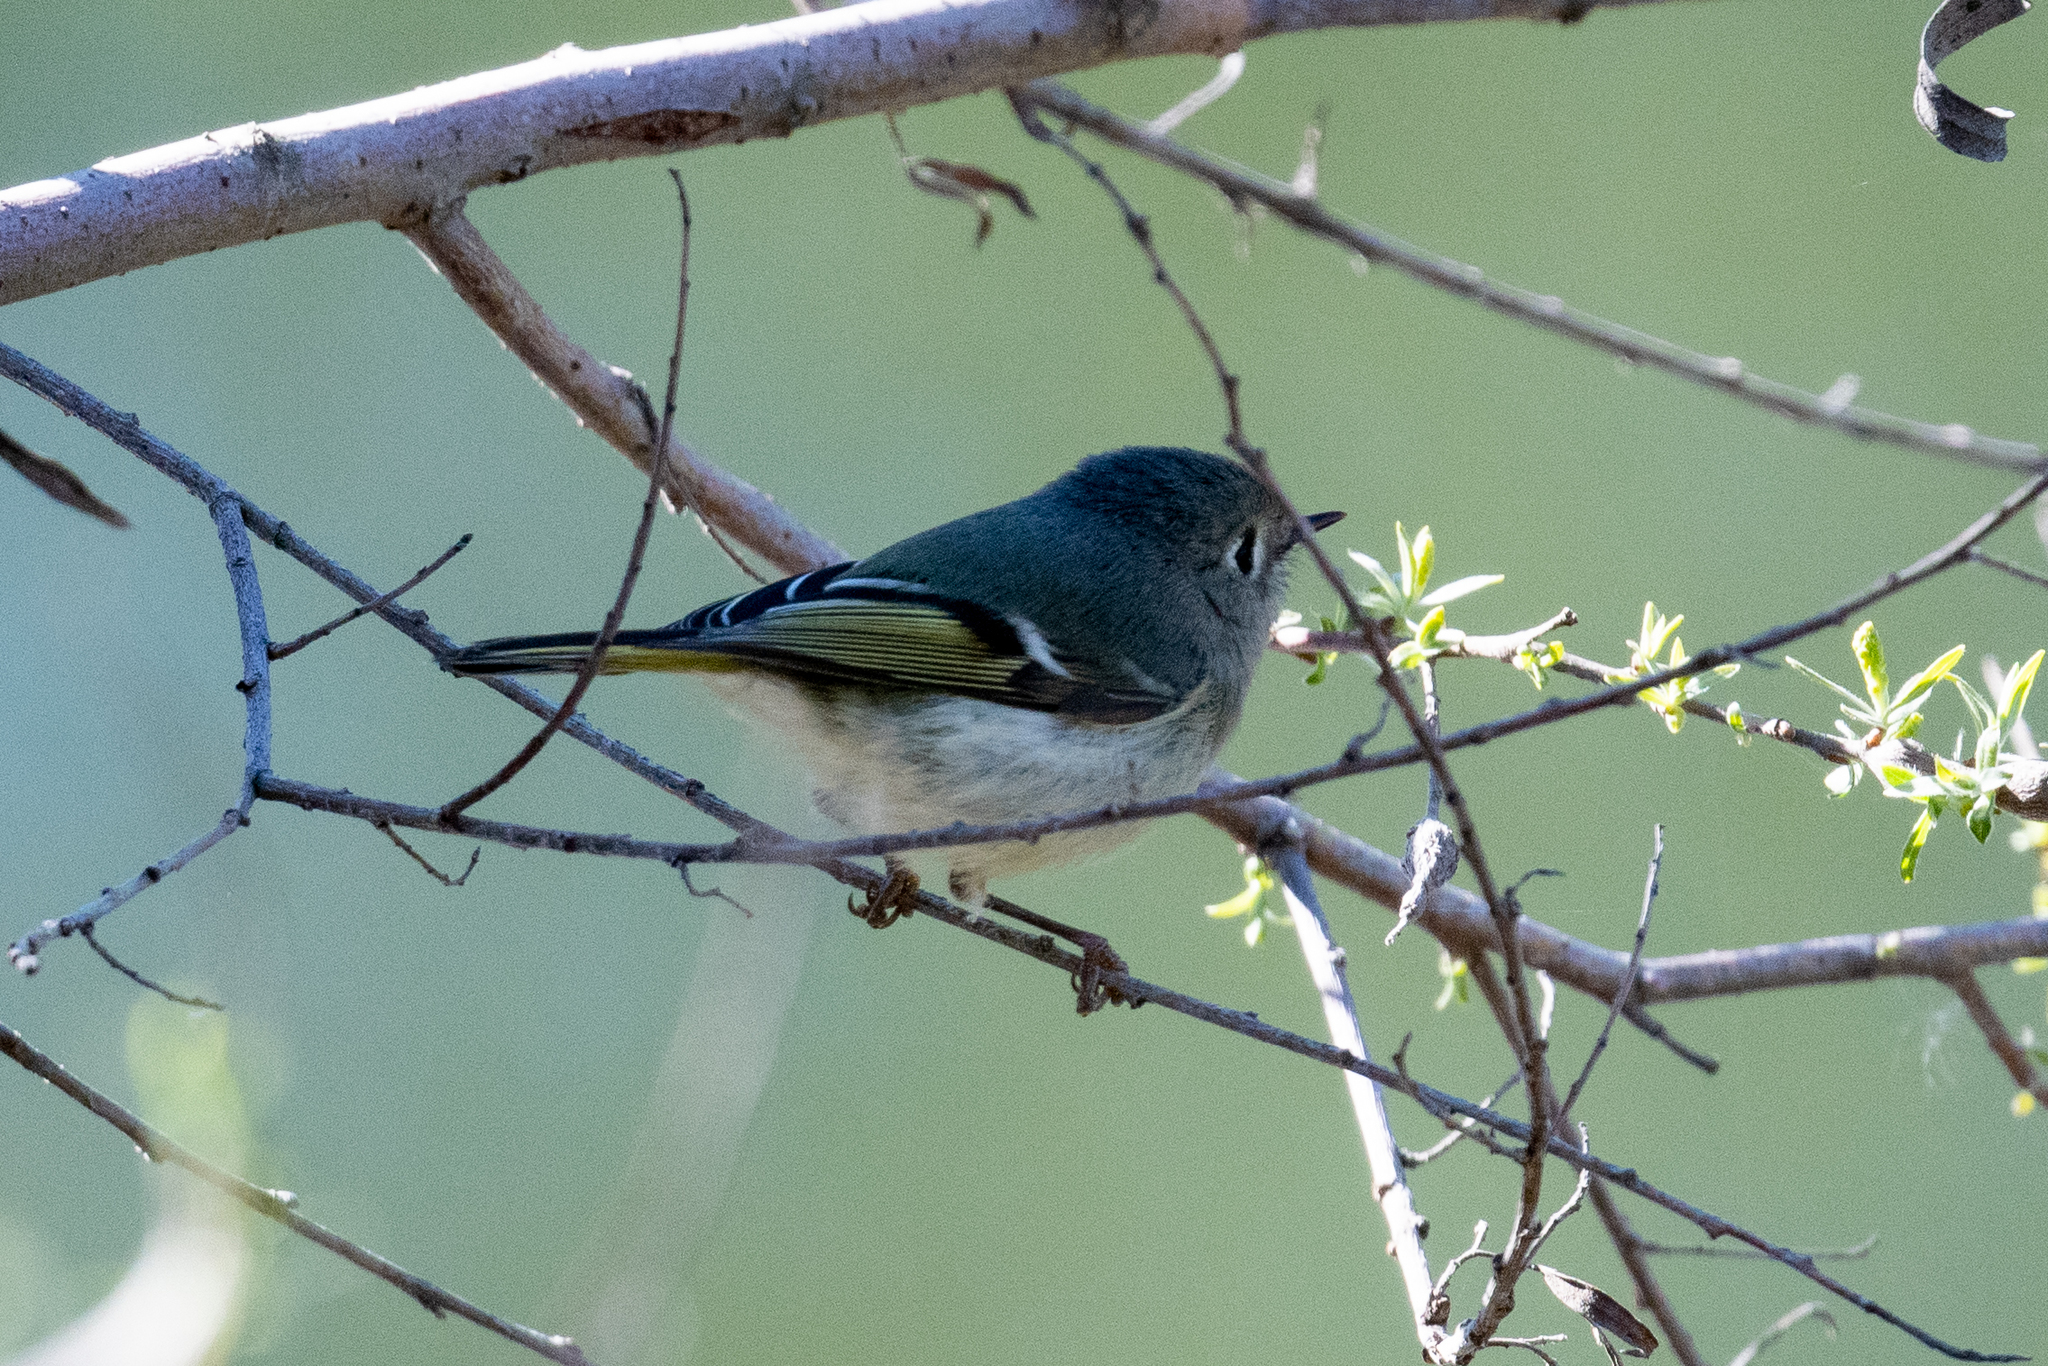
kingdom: Animalia
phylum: Chordata
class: Aves
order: Passeriformes
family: Regulidae
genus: Regulus
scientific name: Regulus calendula
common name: Ruby-crowned kinglet
